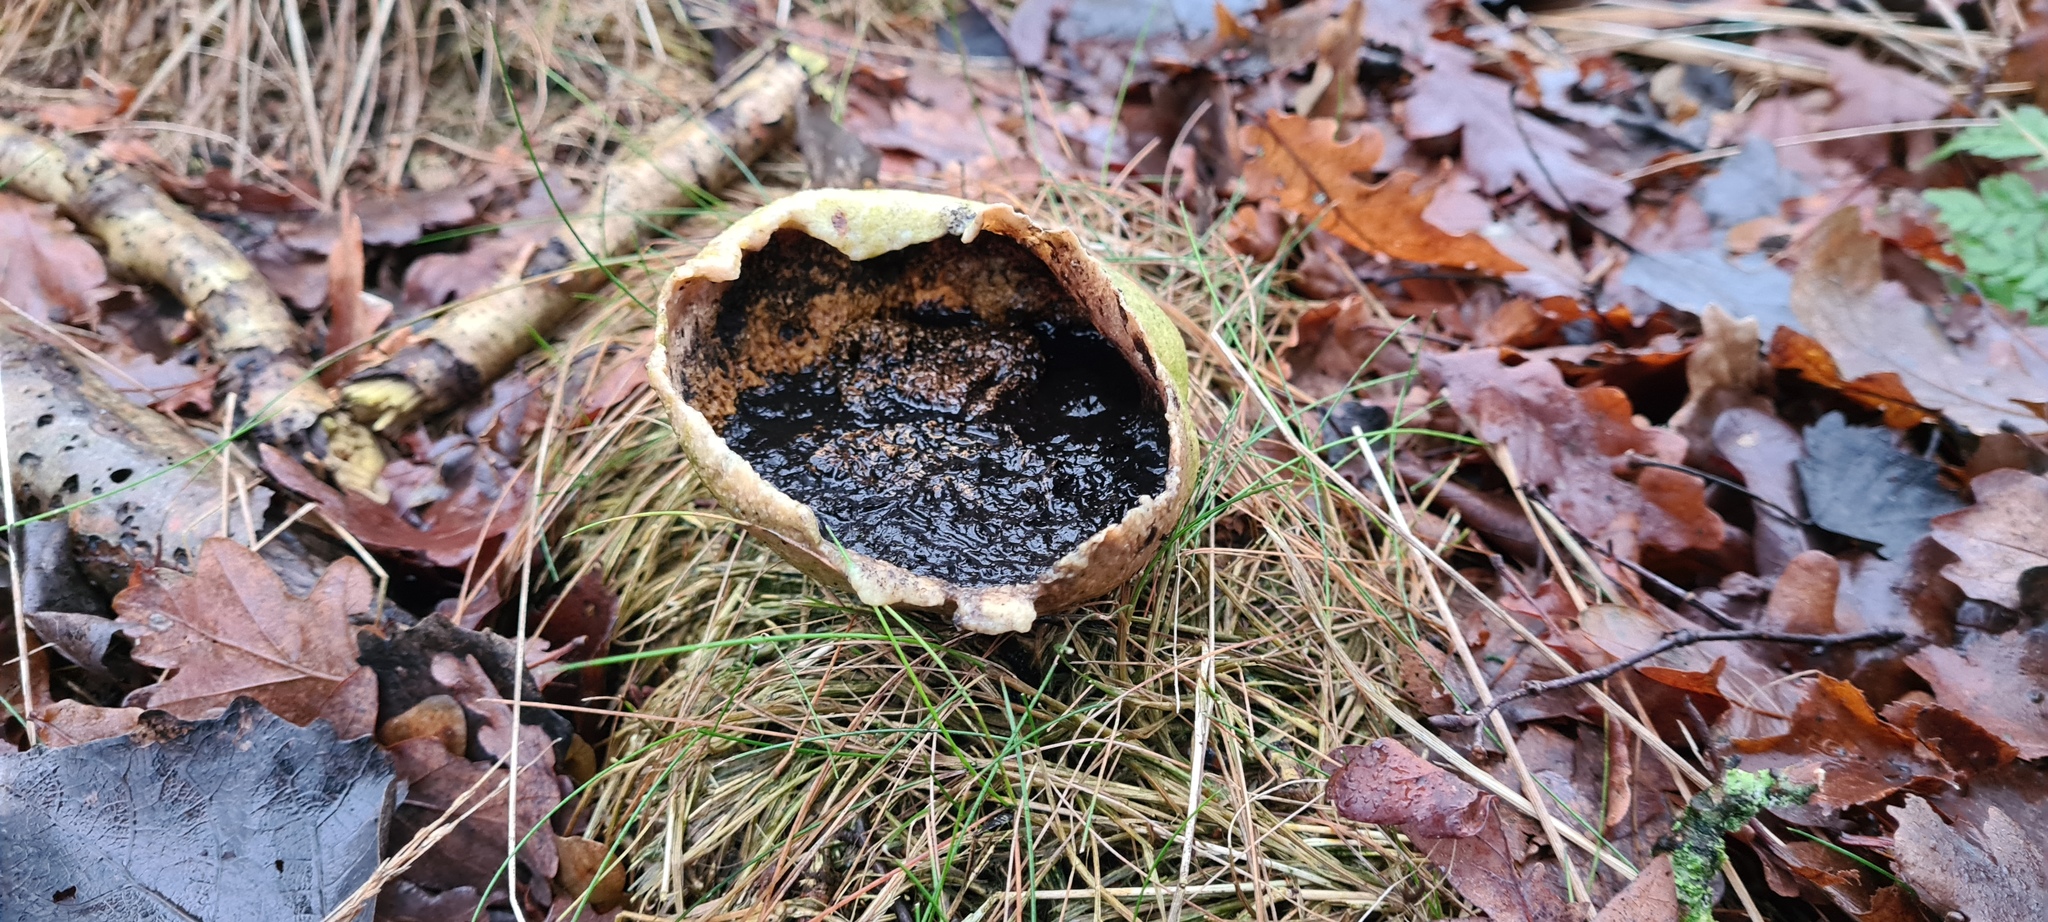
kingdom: Fungi
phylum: Basidiomycota
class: Agaricomycetes
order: Boletales
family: Sclerodermataceae
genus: Scleroderma
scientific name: Scleroderma citrinum
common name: Common earthball
